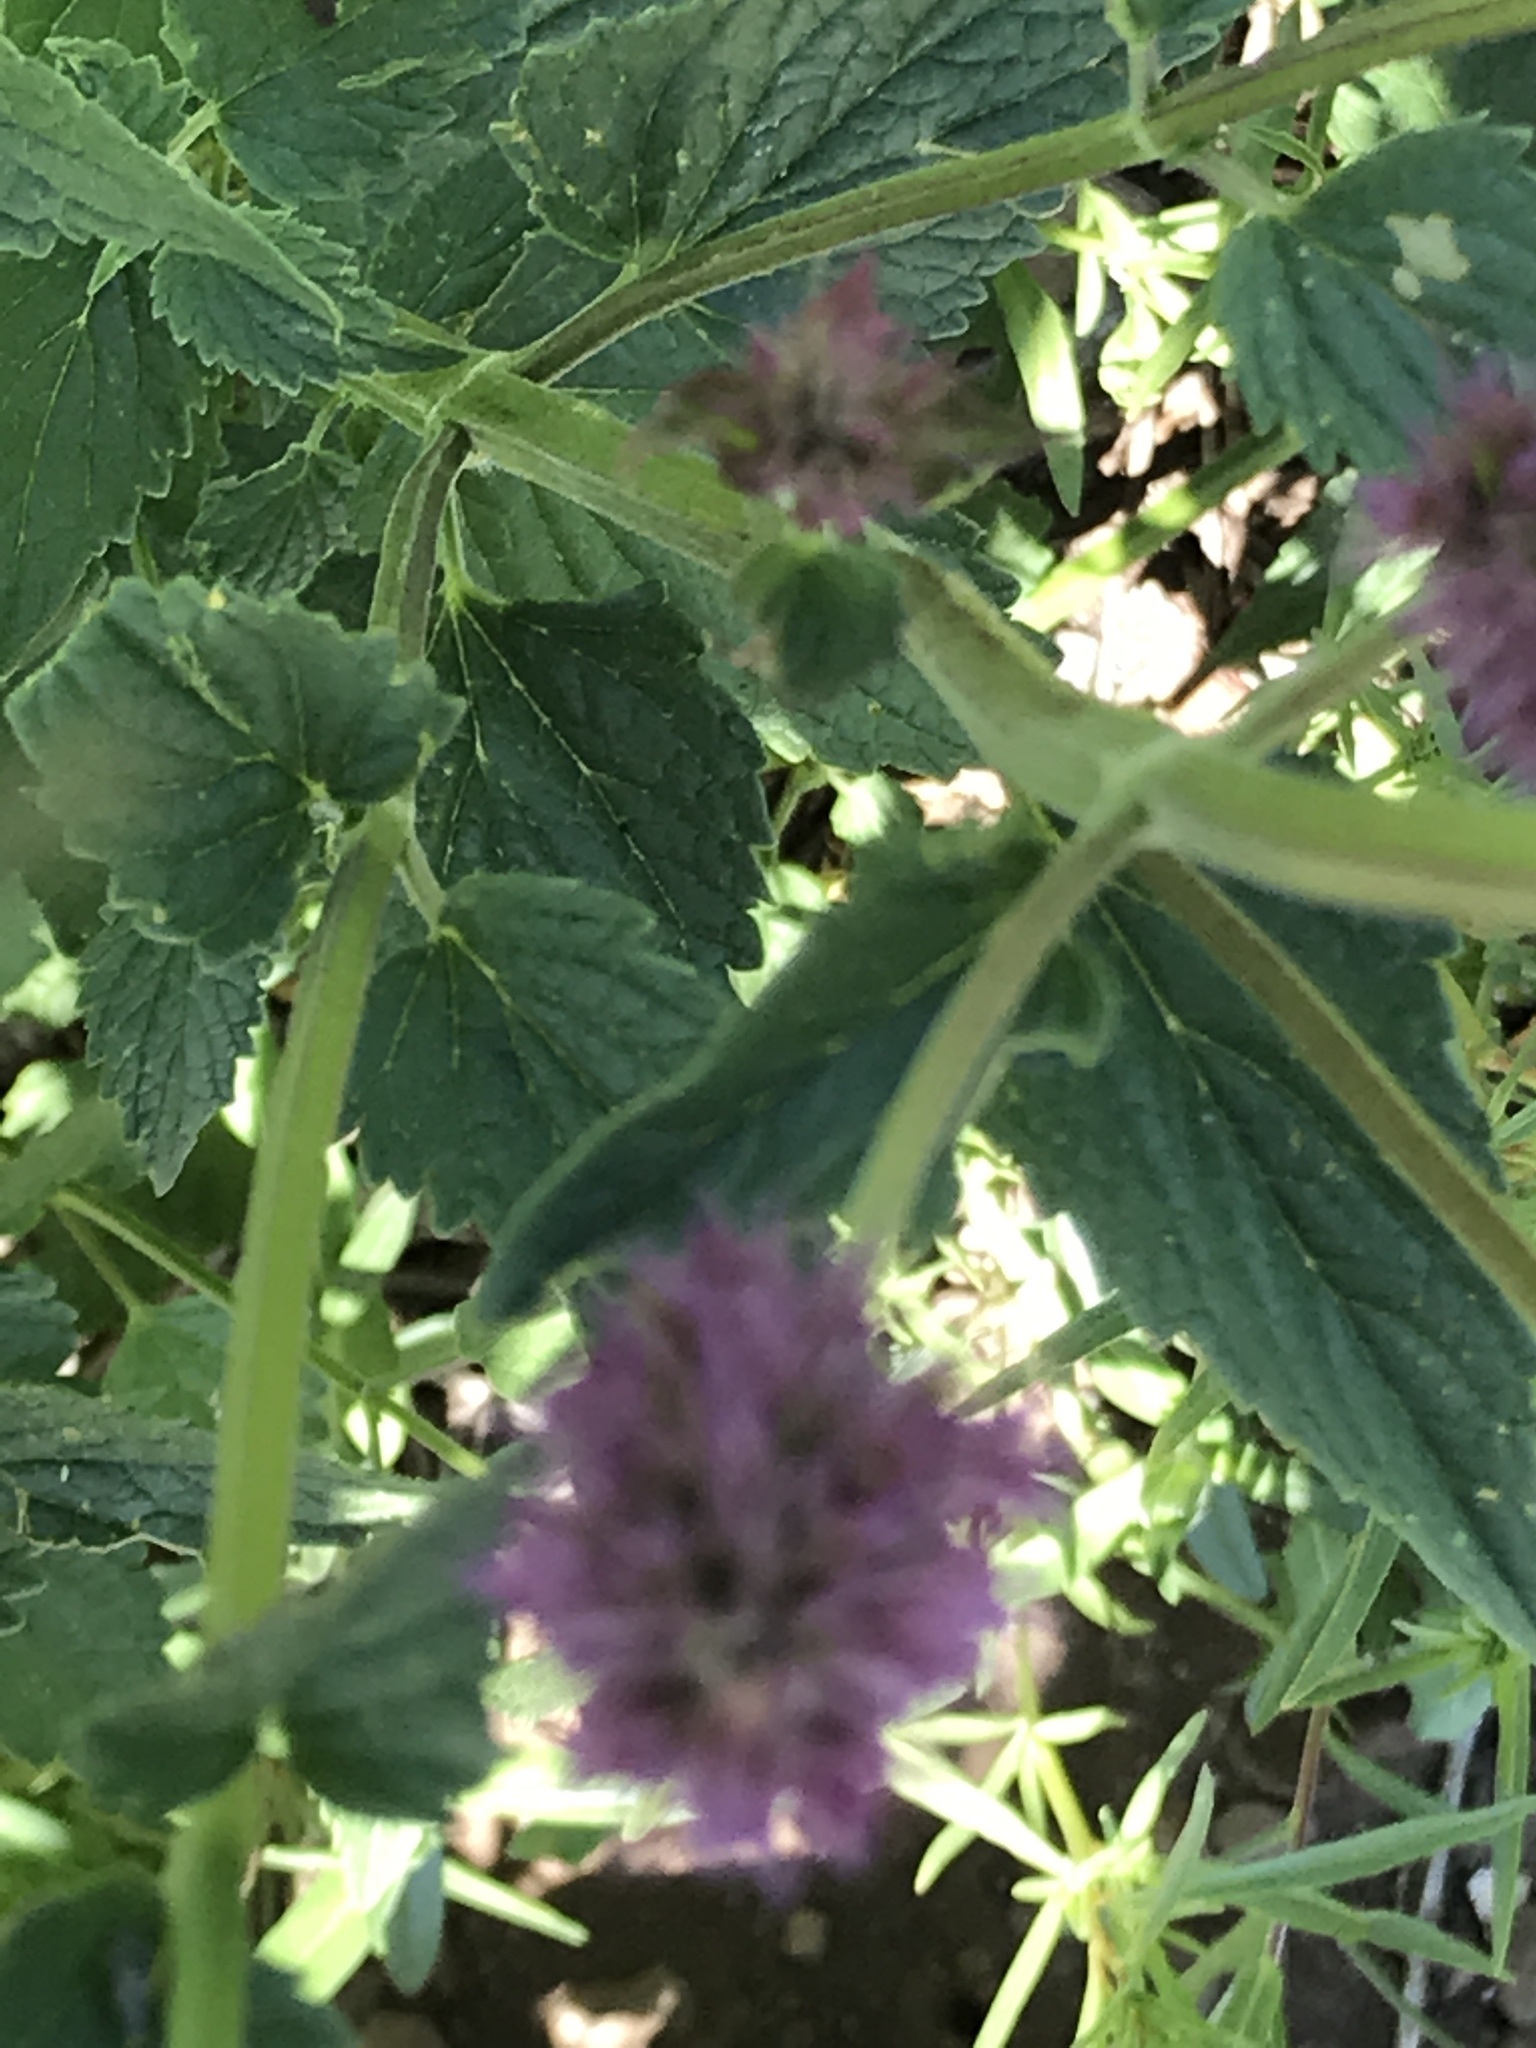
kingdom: Plantae
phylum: Tracheophyta
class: Magnoliopsida
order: Lamiales
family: Lamiaceae
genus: Agastache
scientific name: Agastache urticifolia
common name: Horsemint giant hyssop
